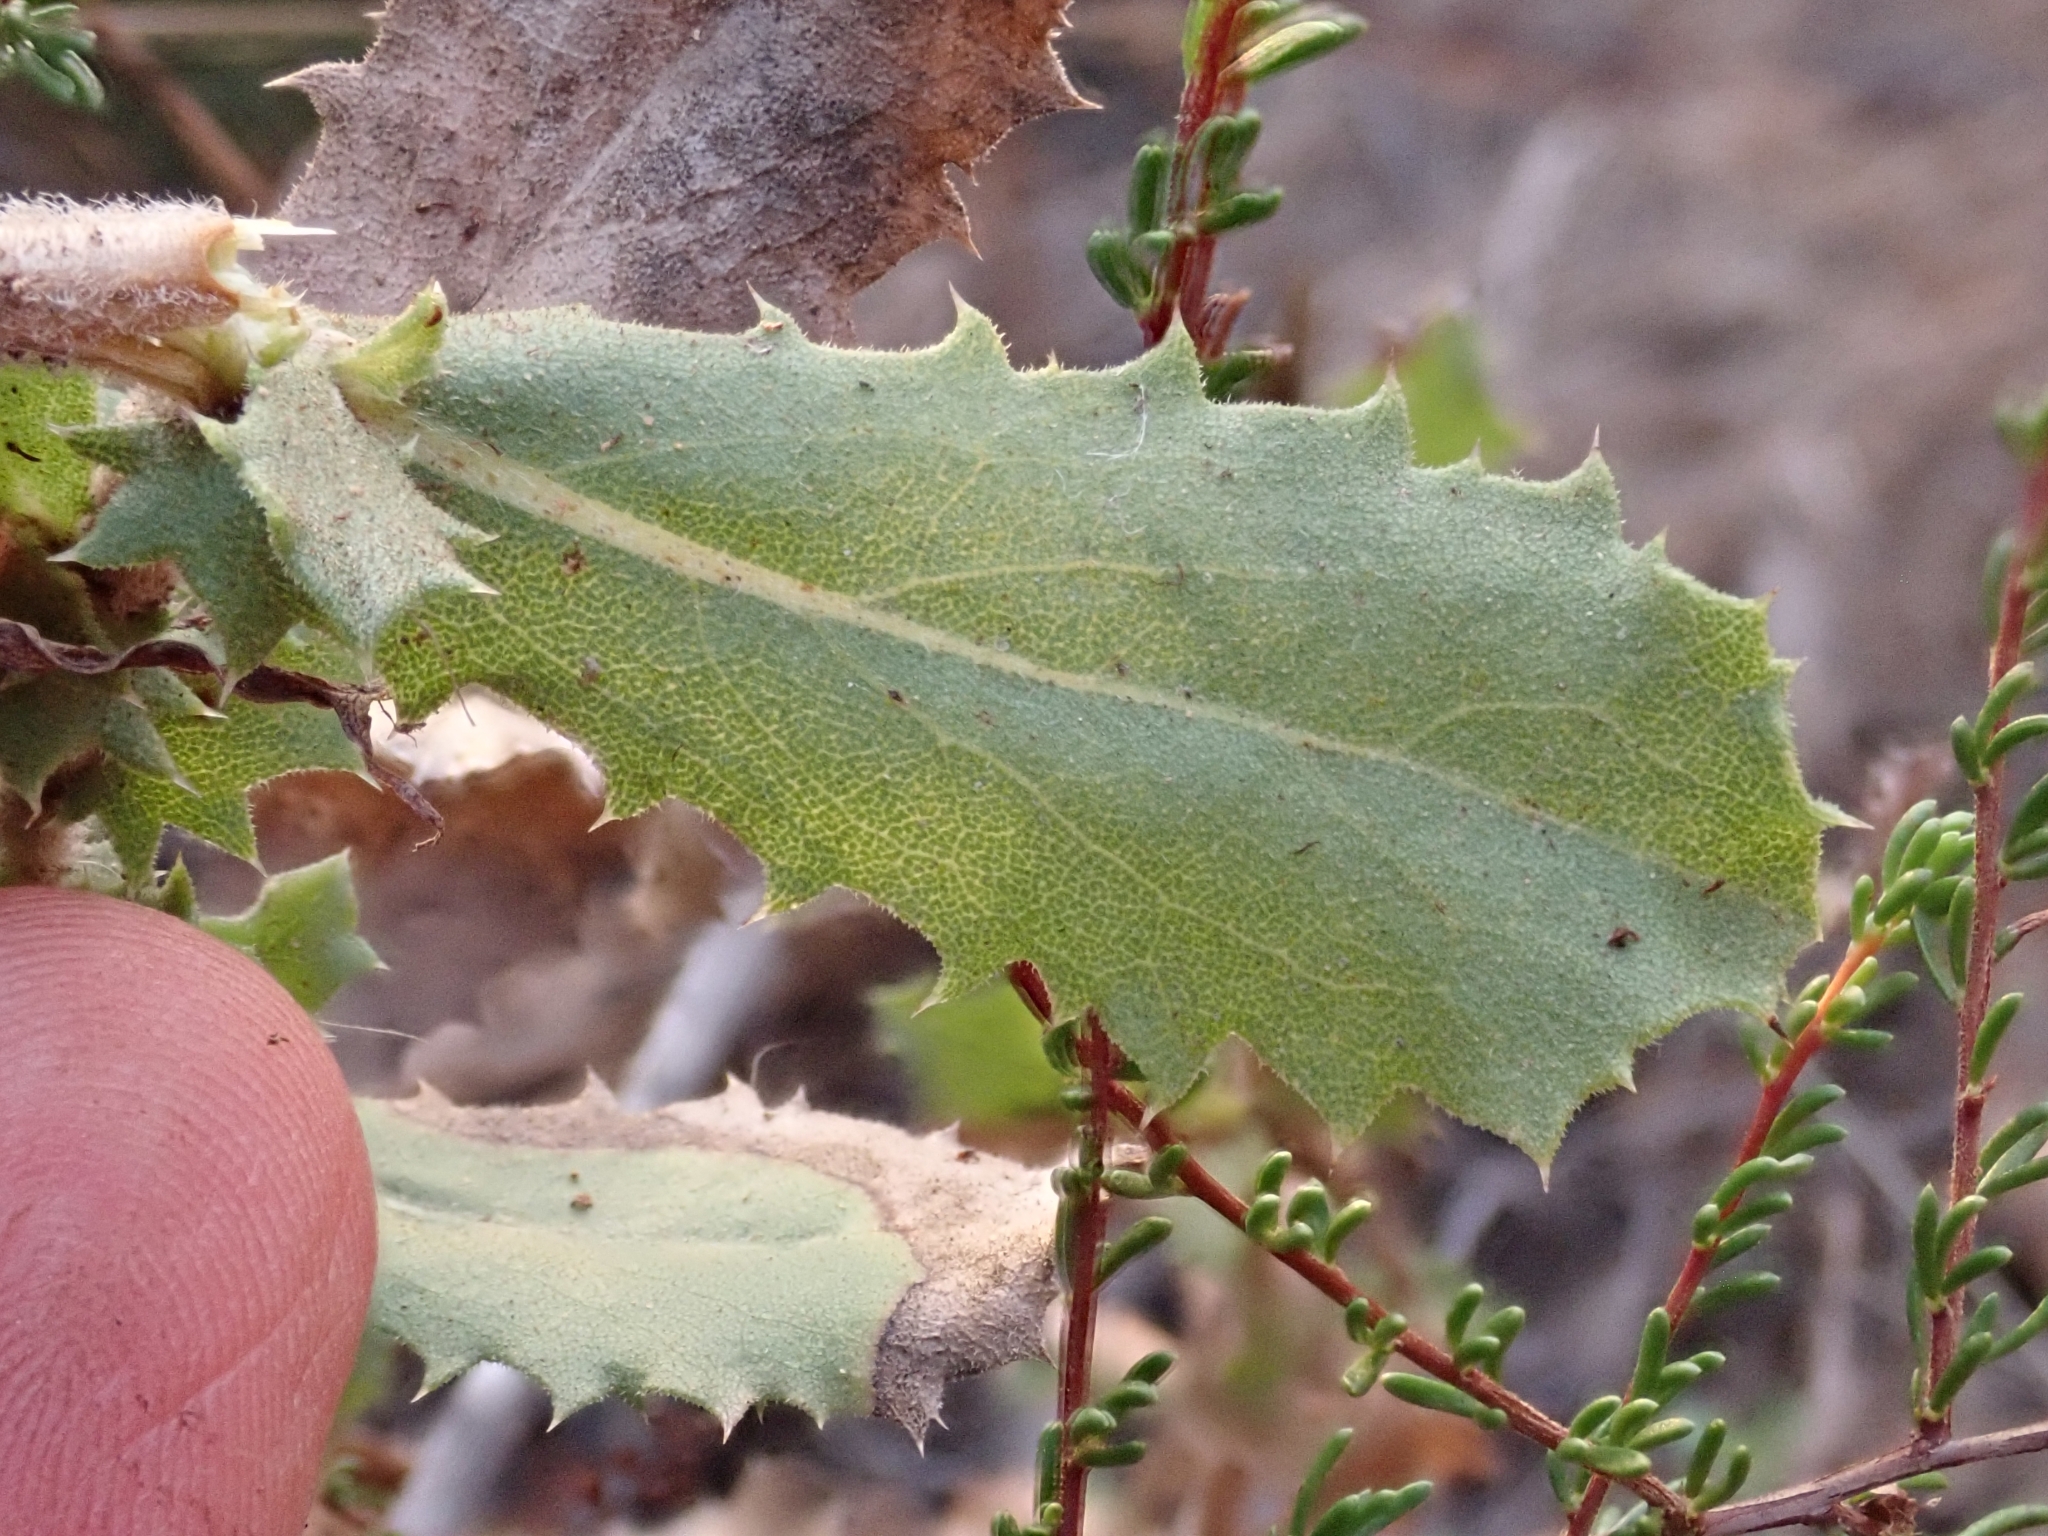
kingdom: Plantae
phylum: Tracheophyta
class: Magnoliopsida
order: Asterales
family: Asteraceae
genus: Hazardia
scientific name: Hazardia squarrosa
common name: Saw-tooth goldenbush
